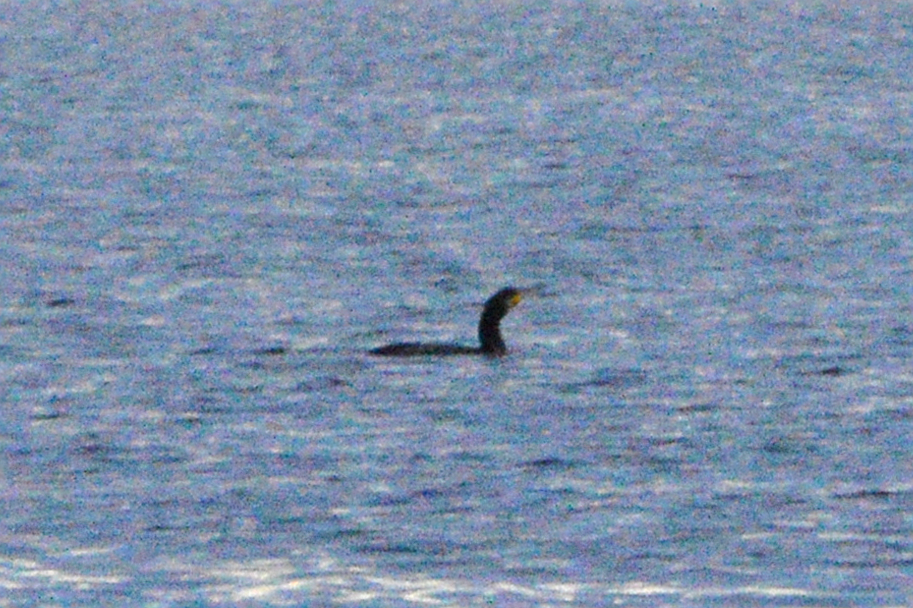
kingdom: Animalia
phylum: Chordata
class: Aves
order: Suliformes
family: Phalacrocoracidae
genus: Phalacrocorax
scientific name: Phalacrocorax carbo
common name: Great cormorant
